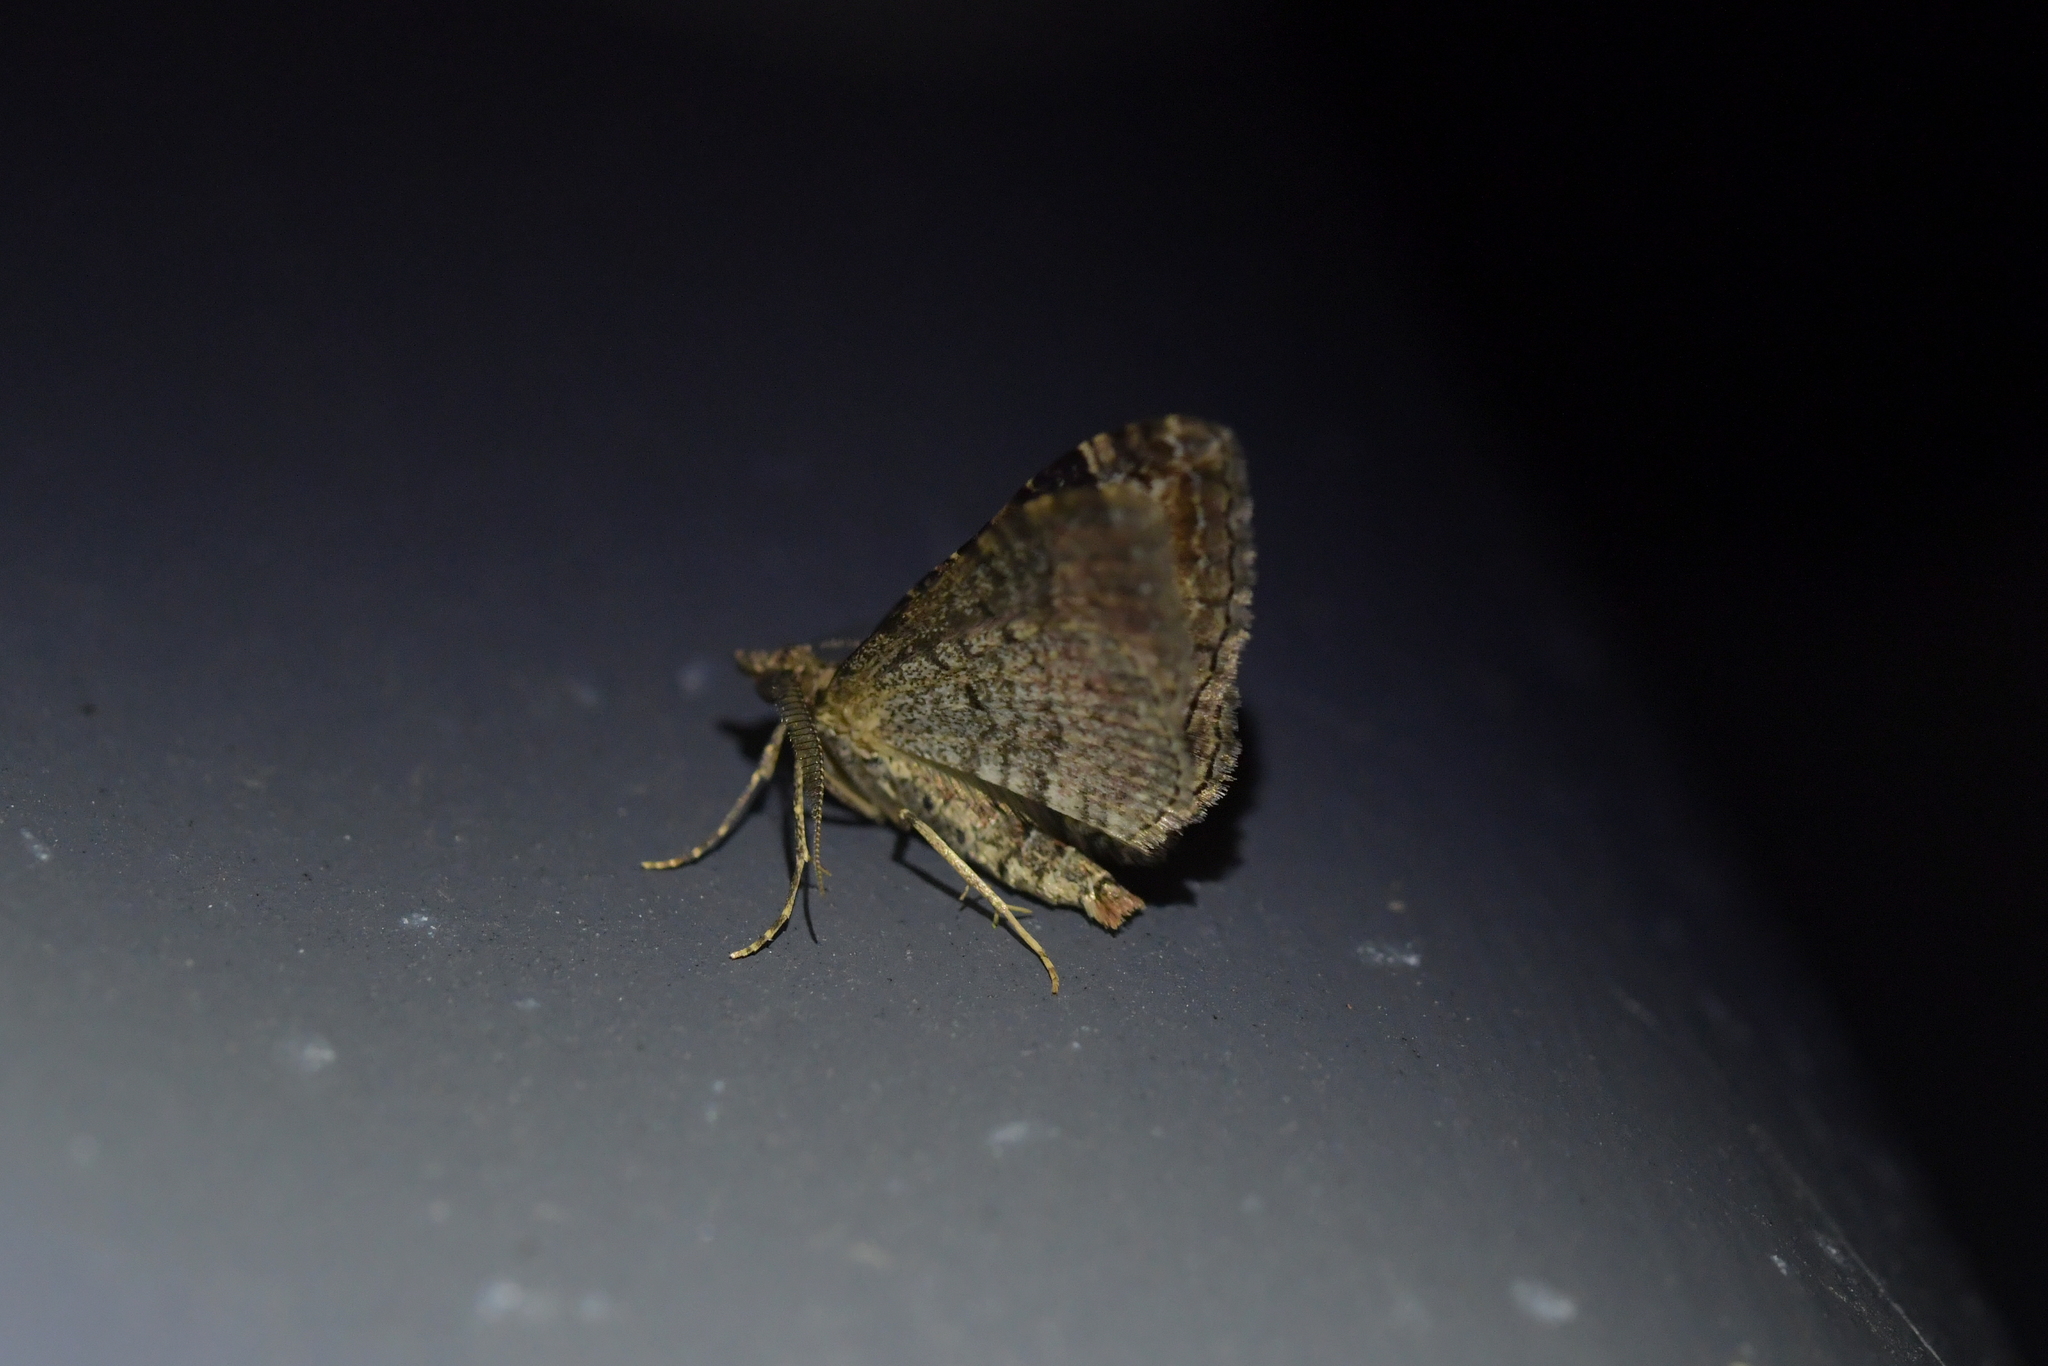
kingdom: Animalia
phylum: Arthropoda
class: Insecta
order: Lepidoptera
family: Geometridae
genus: Epyaxa
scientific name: Epyaxa lucidata
